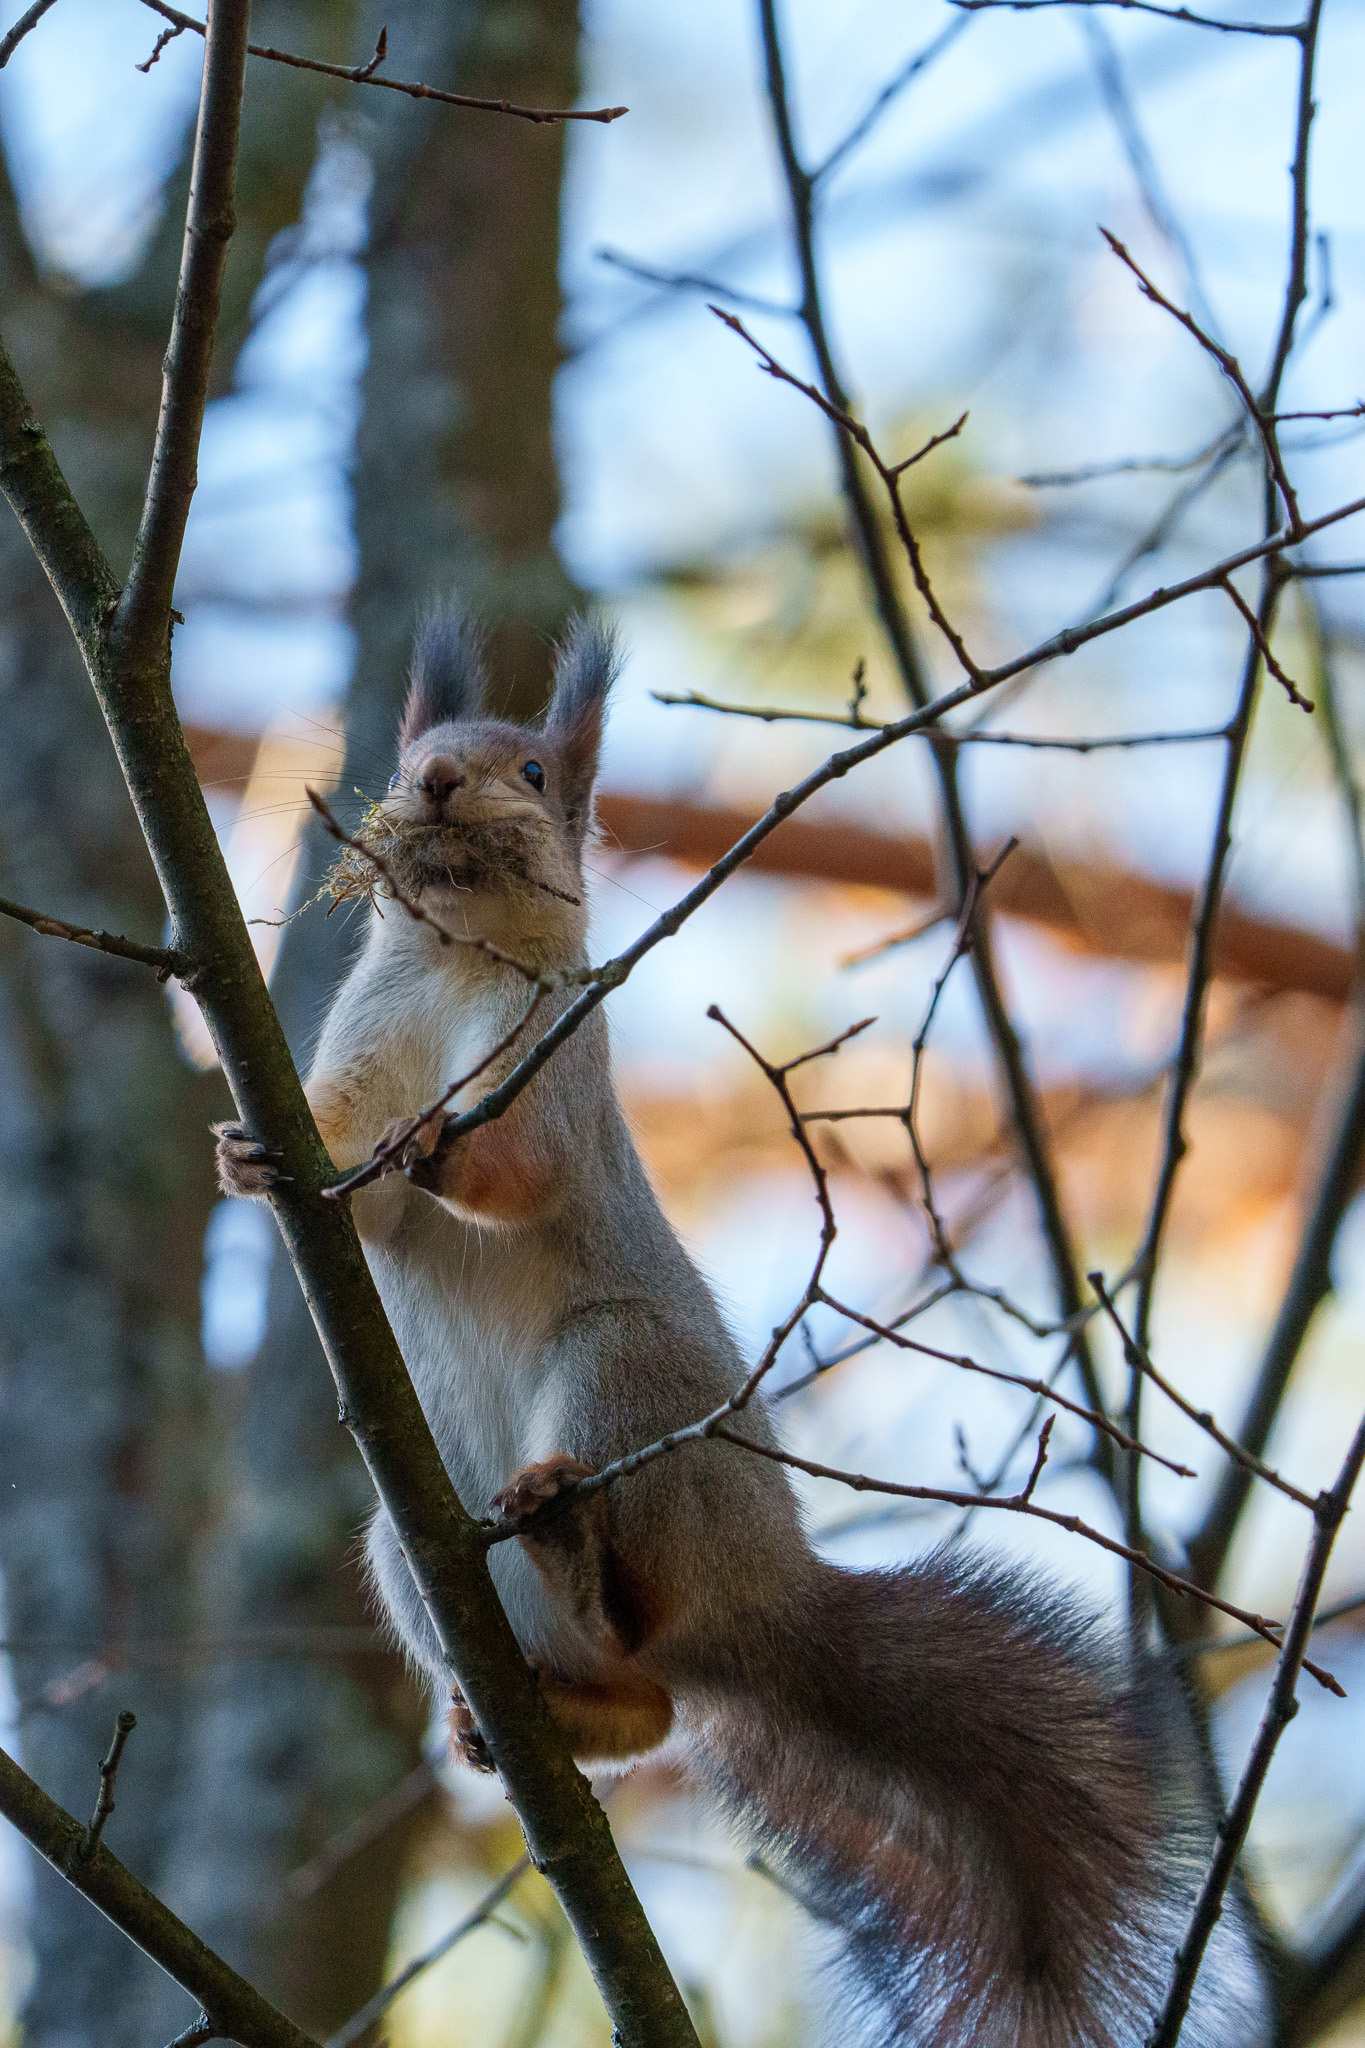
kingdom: Animalia
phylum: Chordata
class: Mammalia
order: Rodentia
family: Sciuridae
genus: Sciurus
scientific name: Sciurus vulgaris
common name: Eurasian red squirrel
